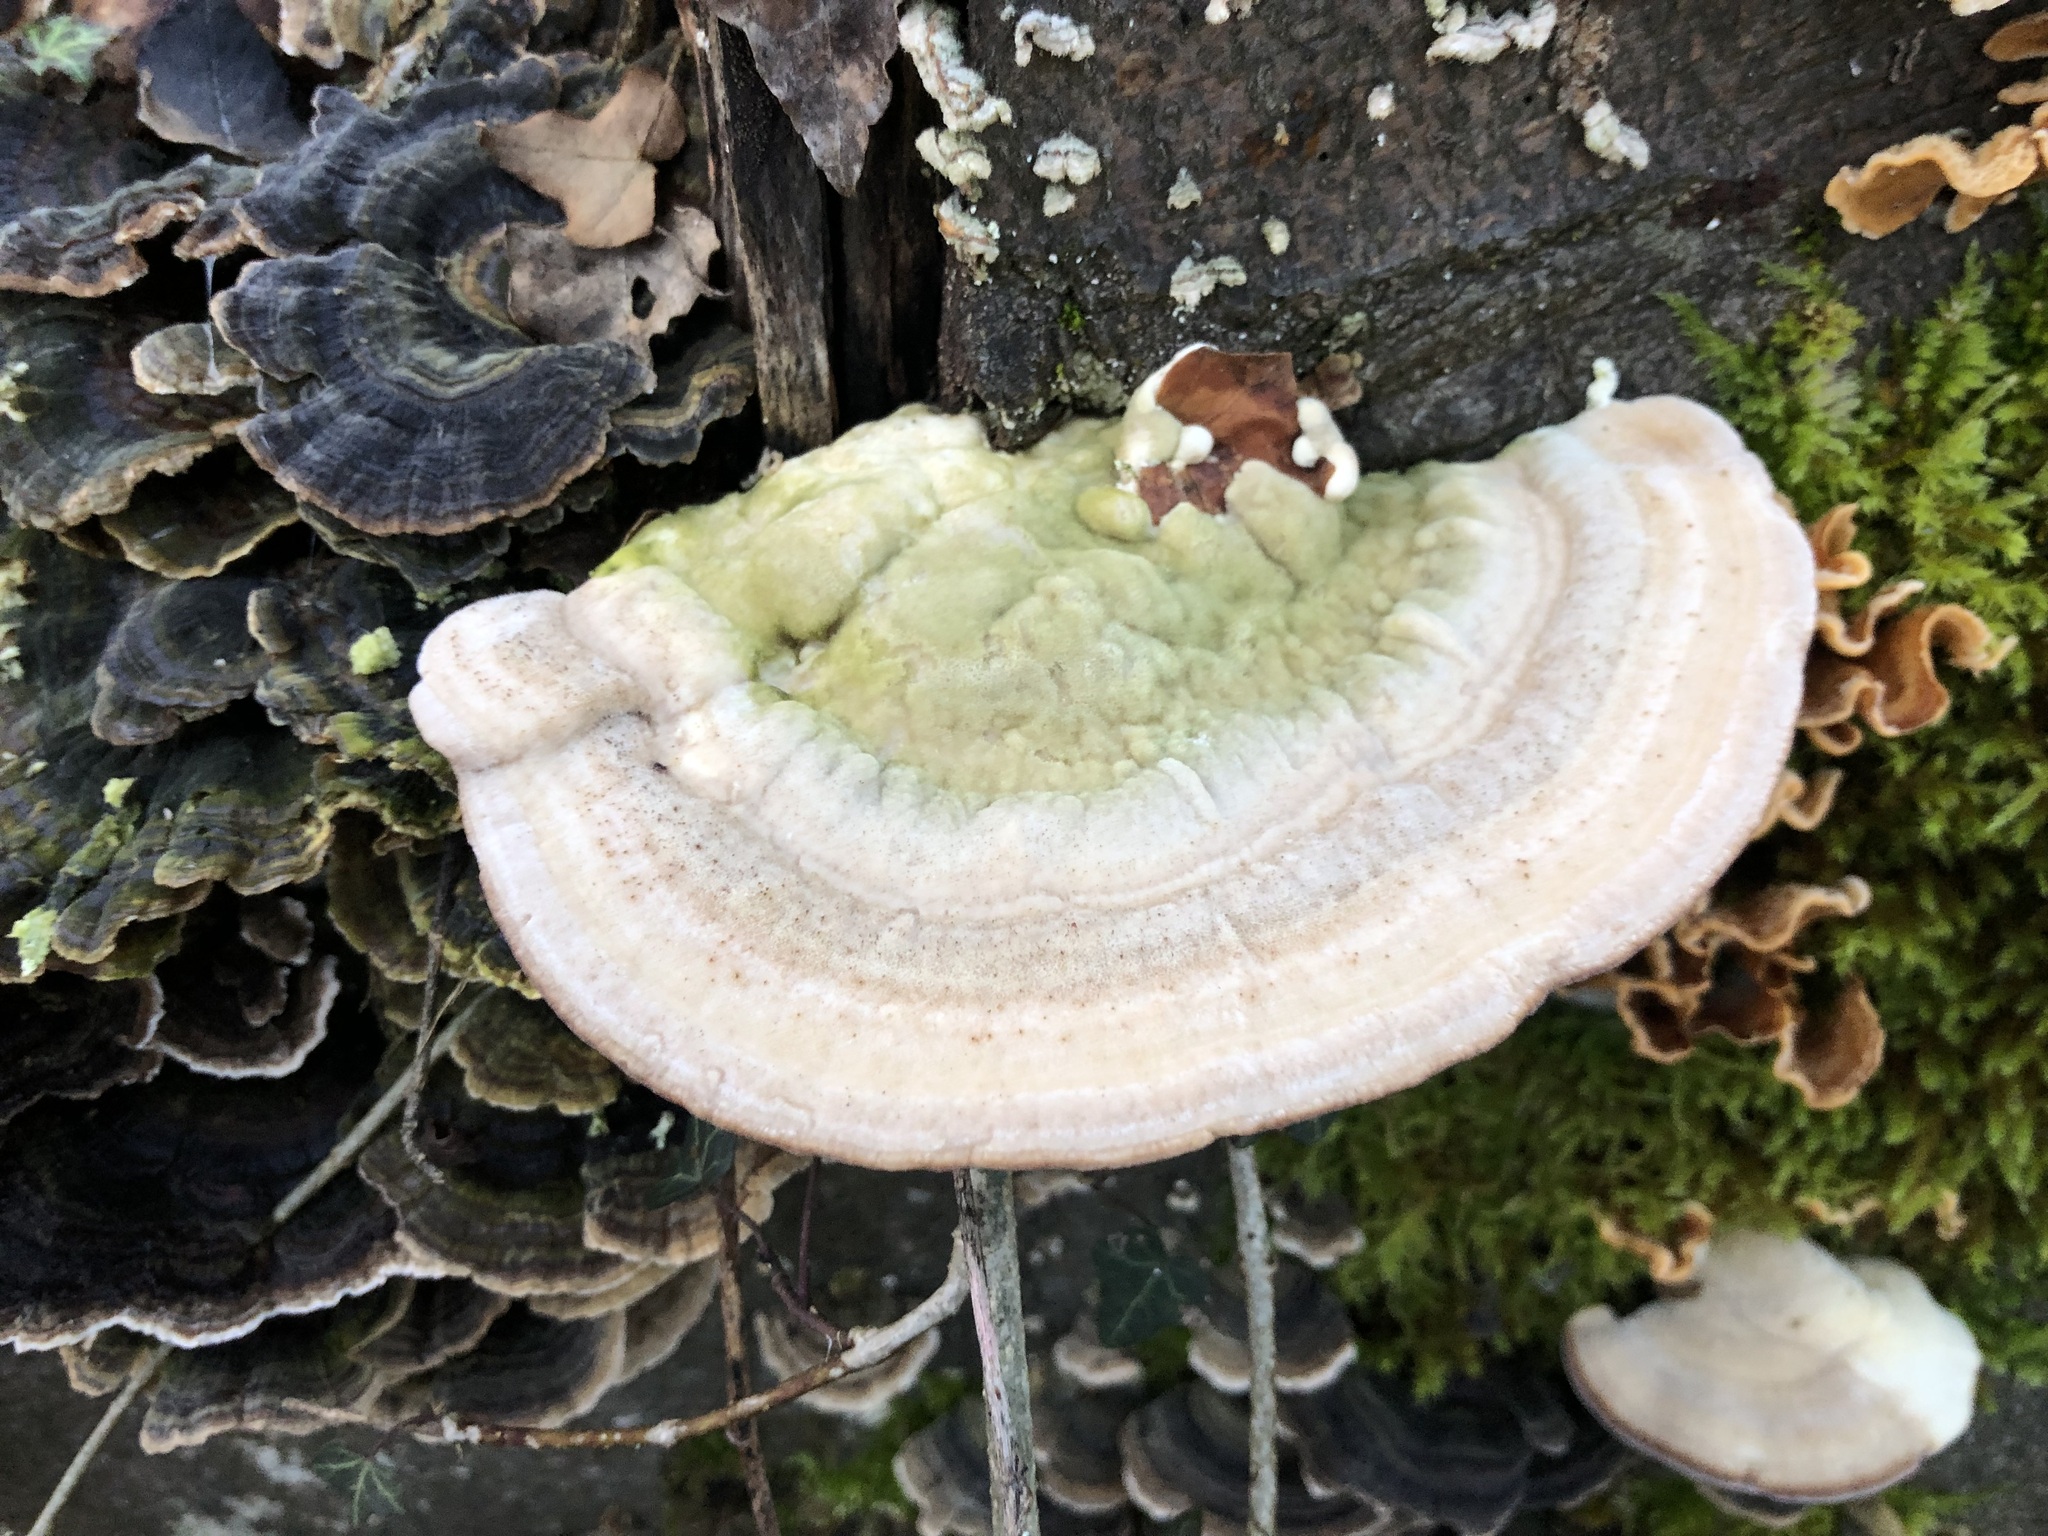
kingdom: Fungi
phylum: Basidiomycota
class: Agaricomycetes
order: Polyporales
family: Polyporaceae
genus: Lenzites
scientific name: Lenzites betulinus
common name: Birch mazegill
